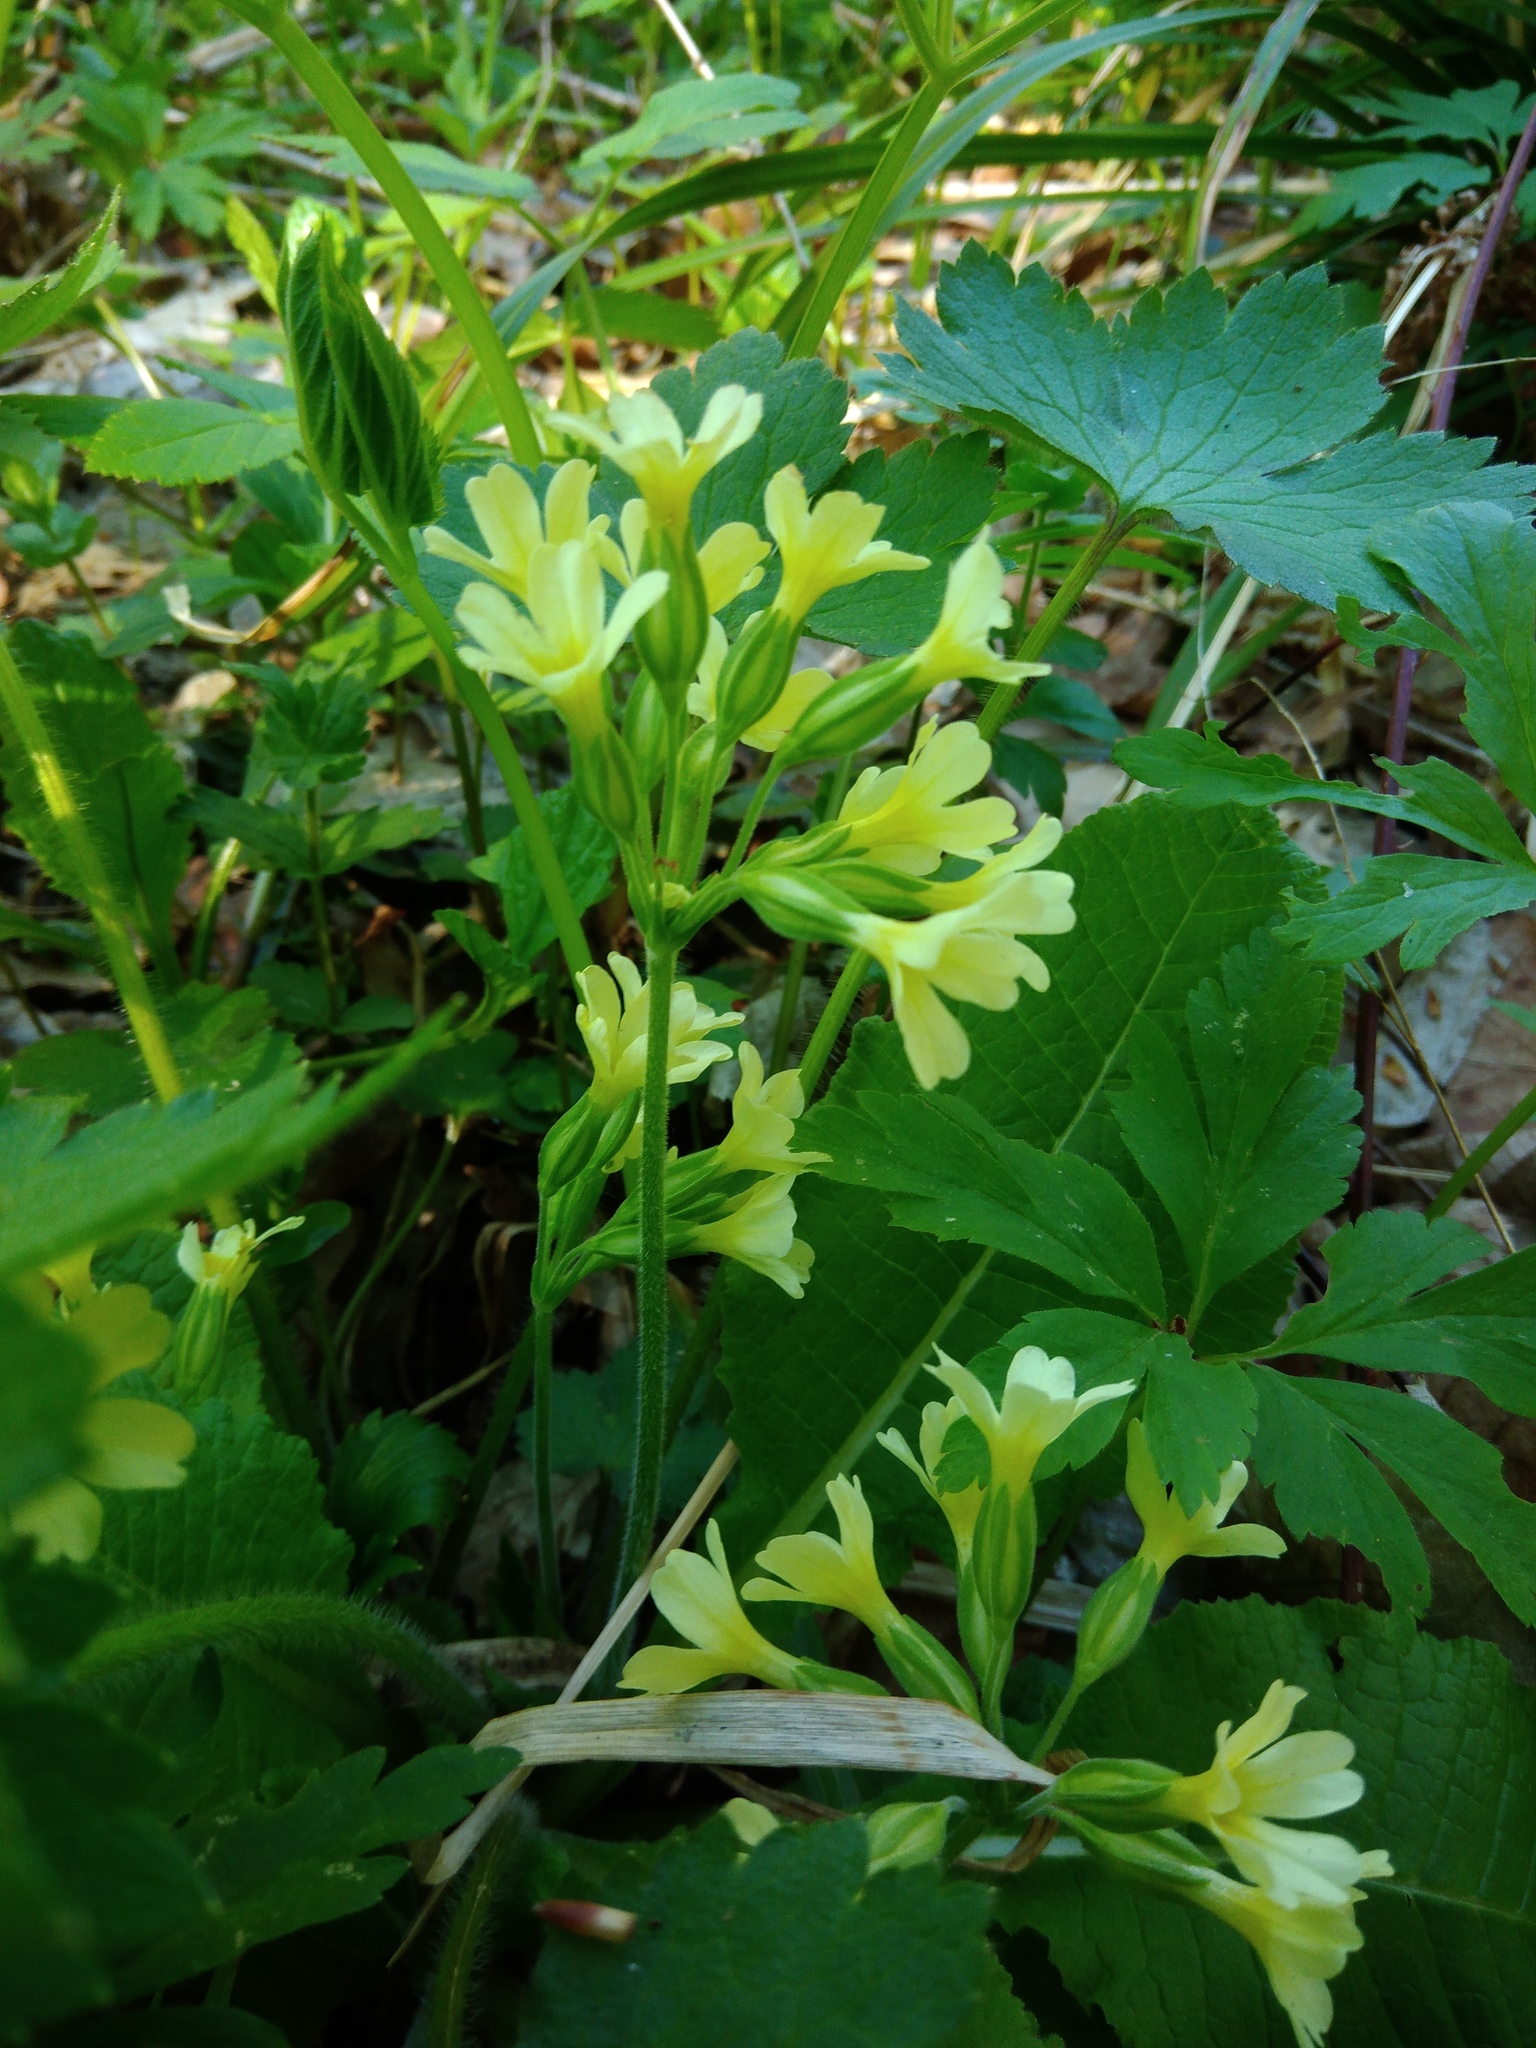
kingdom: Plantae
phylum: Tracheophyta
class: Magnoliopsida
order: Ericales
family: Primulaceae
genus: Primula
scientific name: Primula elatior
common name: Oxlip
